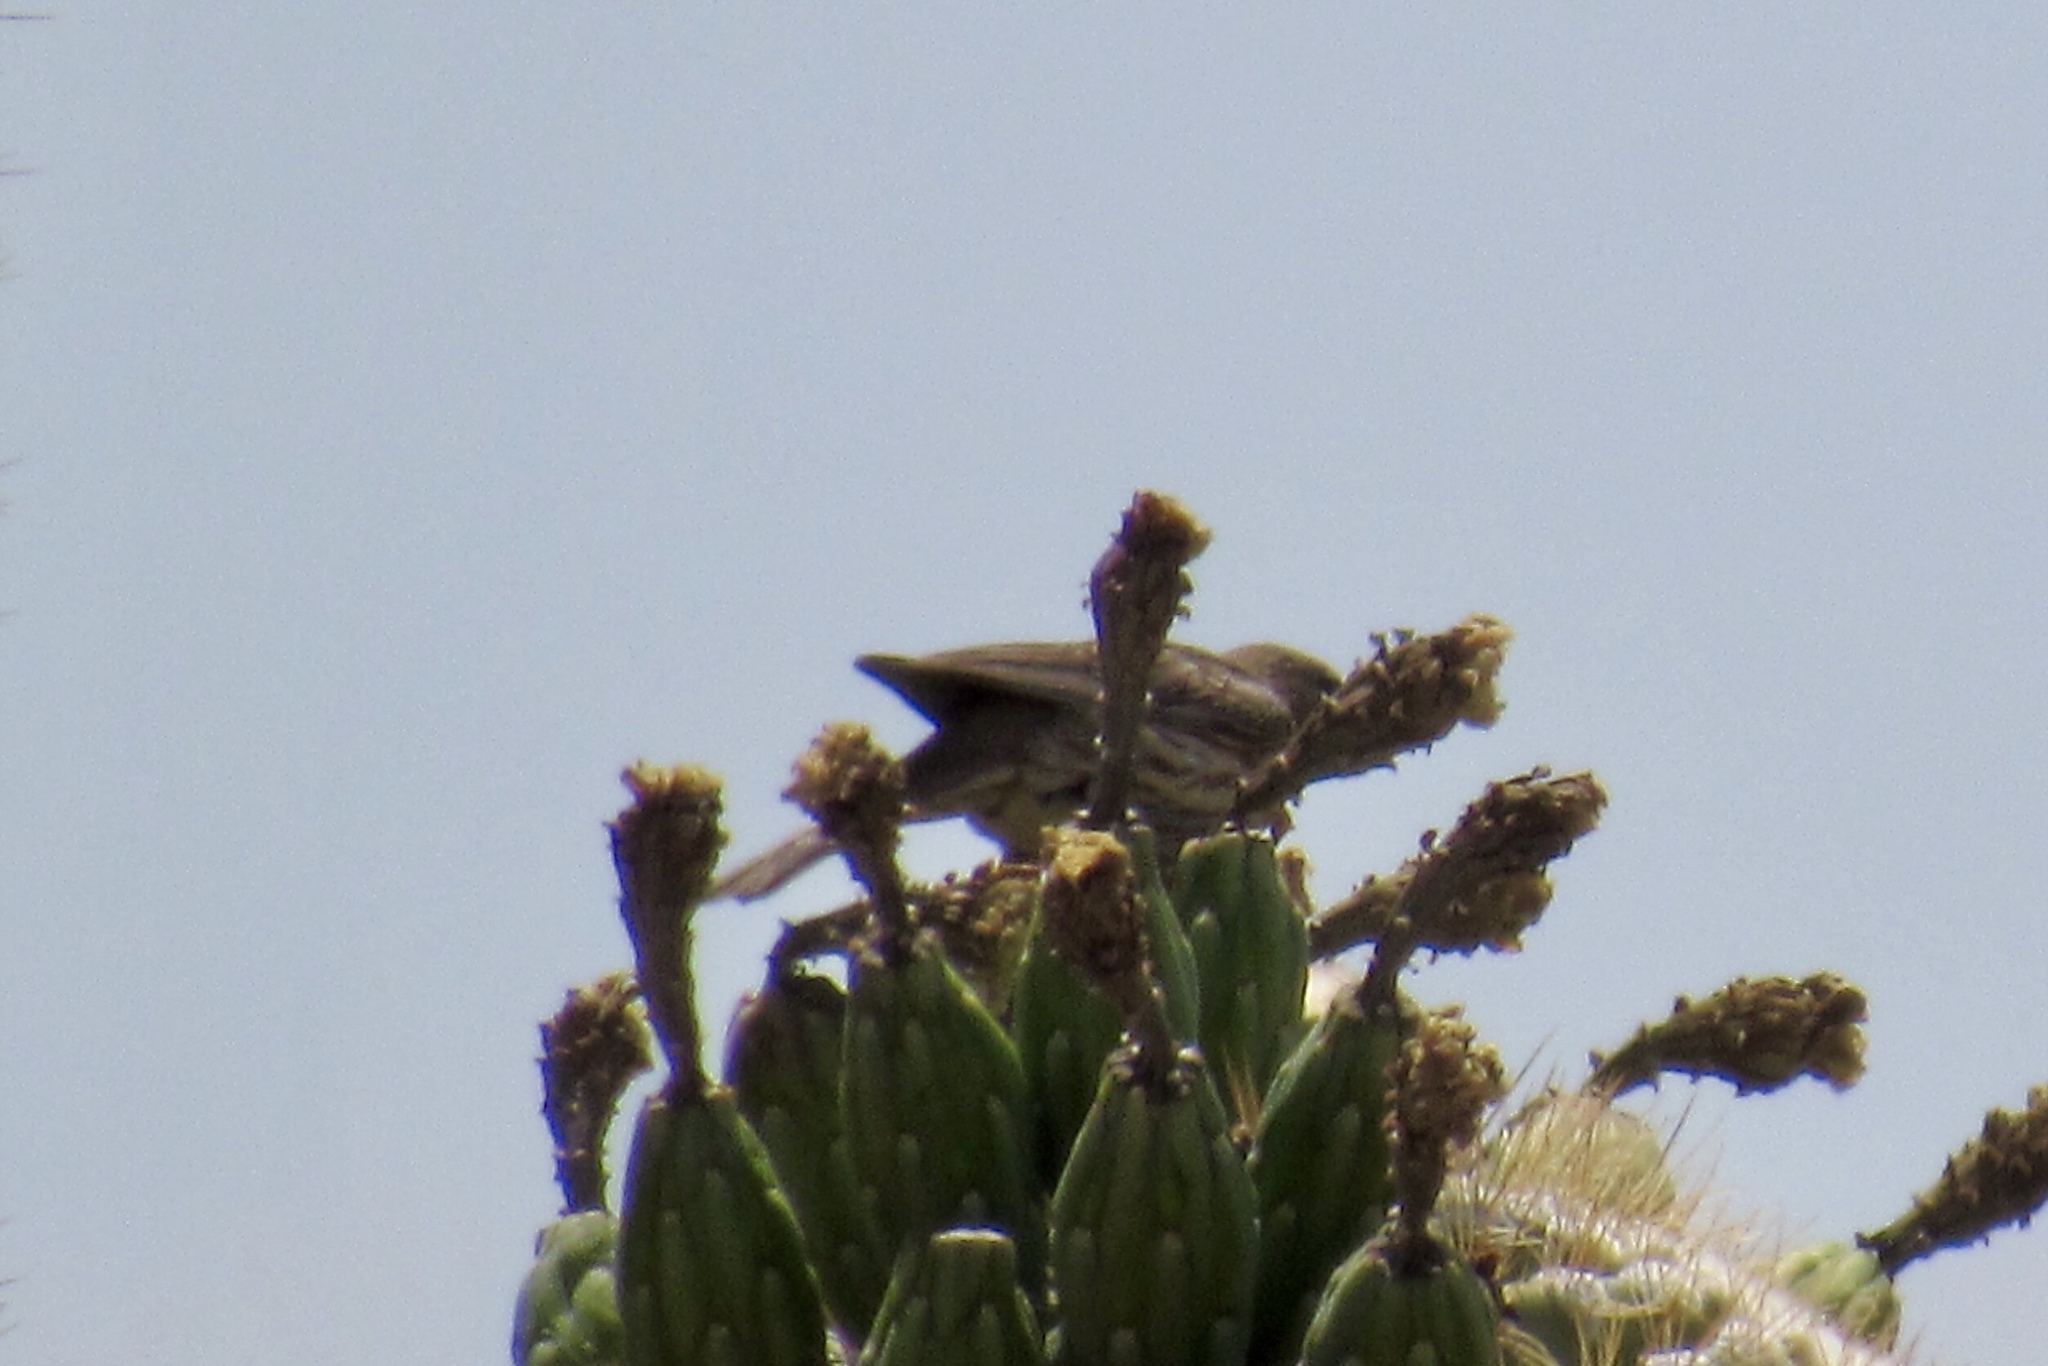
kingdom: Animalia
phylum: Chordata
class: Aves
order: Passeriformes
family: Fringillidae
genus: Haemorhous
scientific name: Haemorhous mexicanus
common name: House finch
